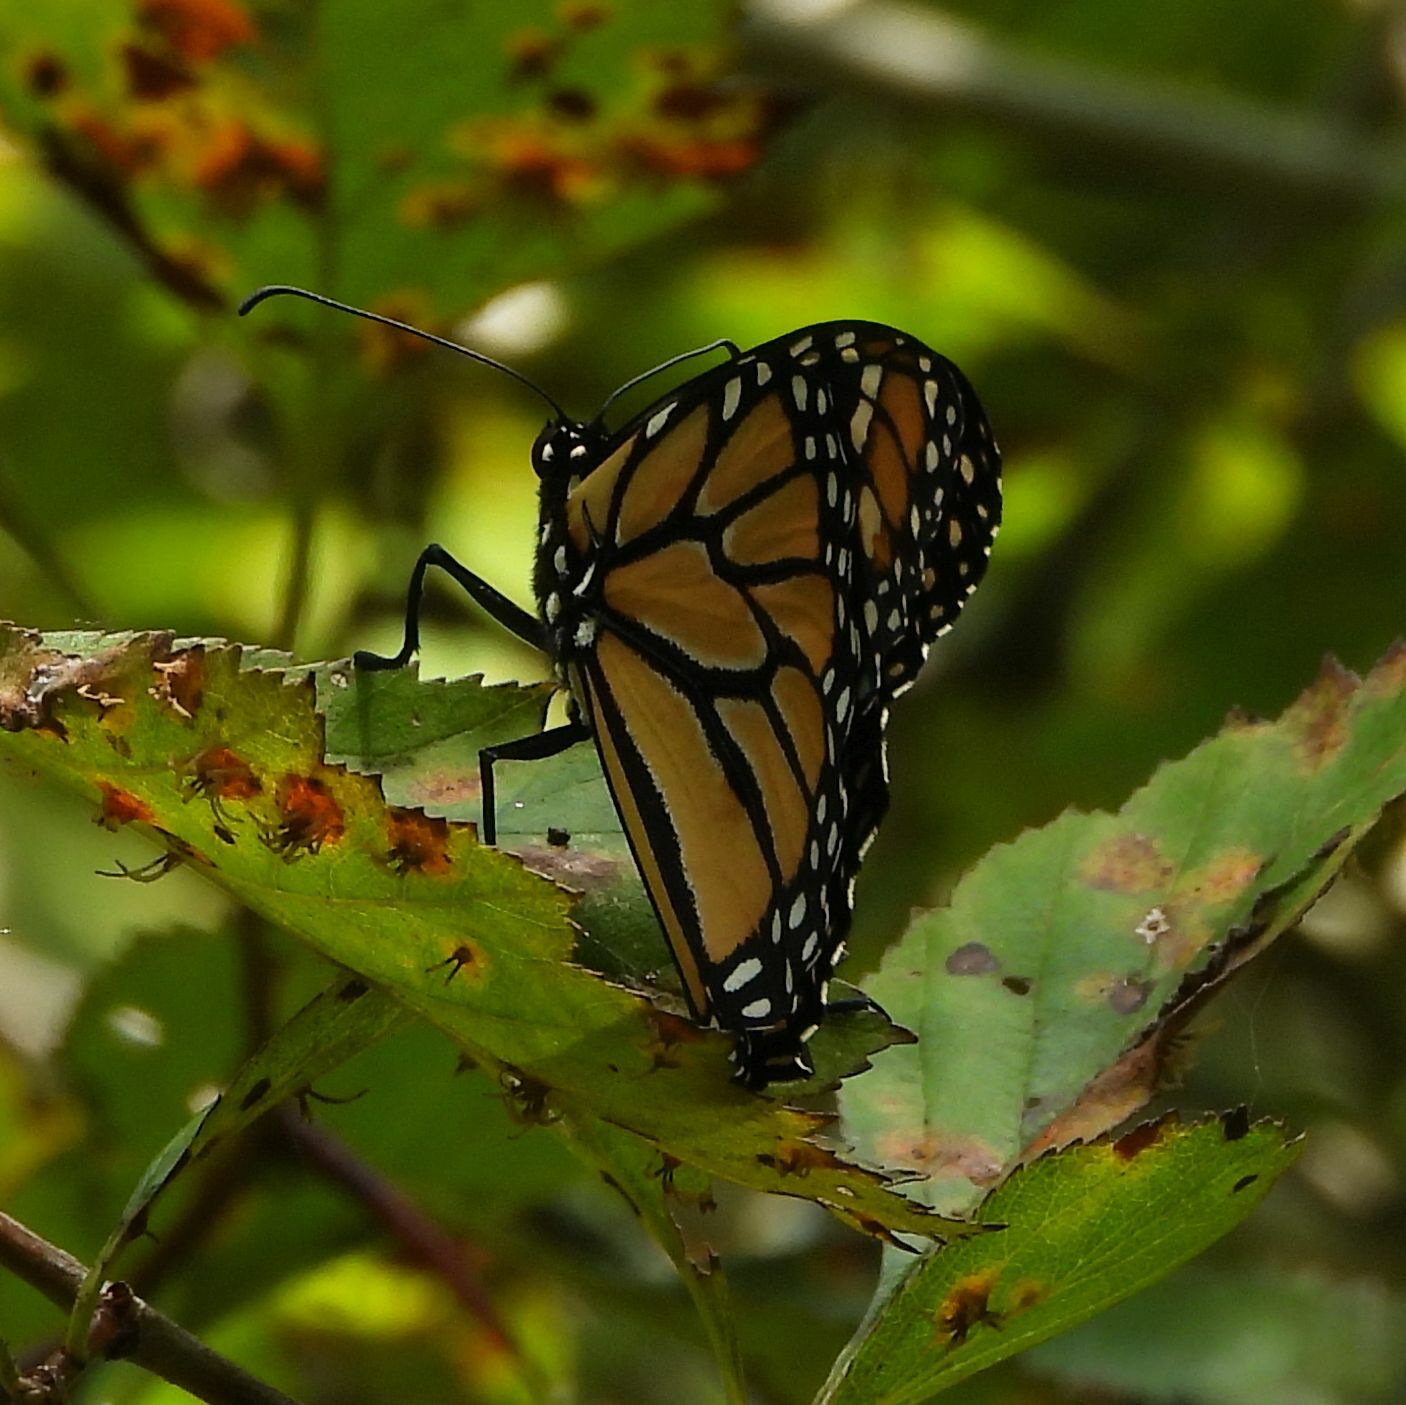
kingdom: Animalia
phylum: Arthropoda
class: Insecta
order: Lepidoptera
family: Nymphalidae
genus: Danaus
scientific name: Danaus plexippus
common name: Monarch
